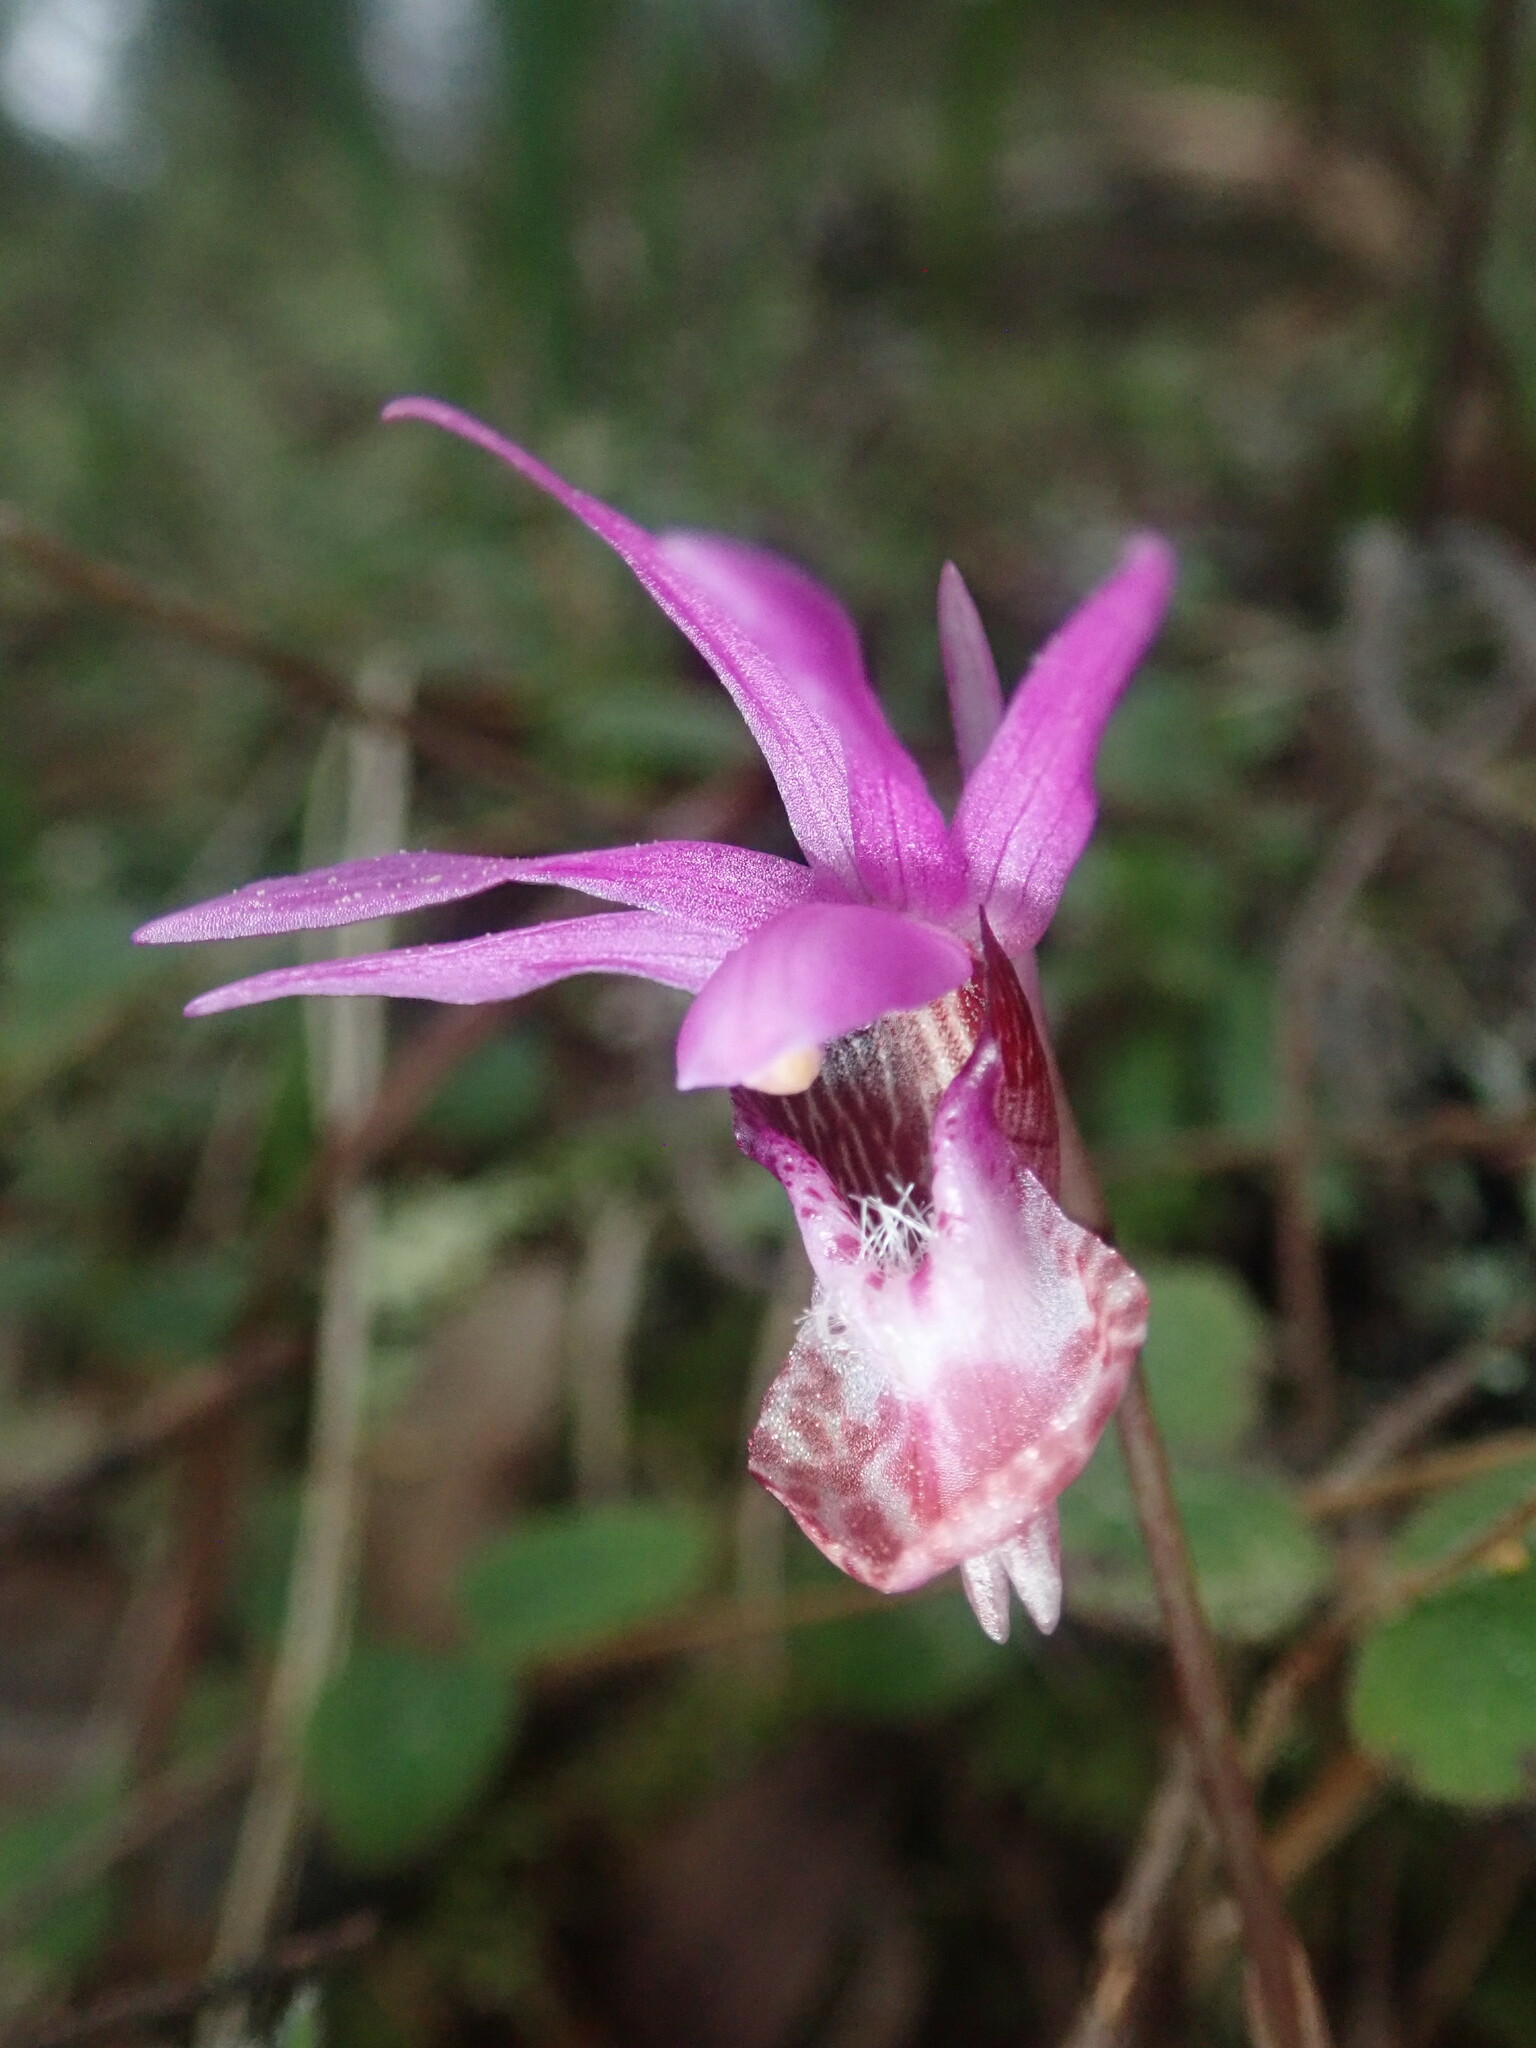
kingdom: Plantae
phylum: Tracheophyta
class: Liliopsida
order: Asparagales
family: Orchidaceae
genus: Calypso
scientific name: Calypso bulbosa
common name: Calypso
